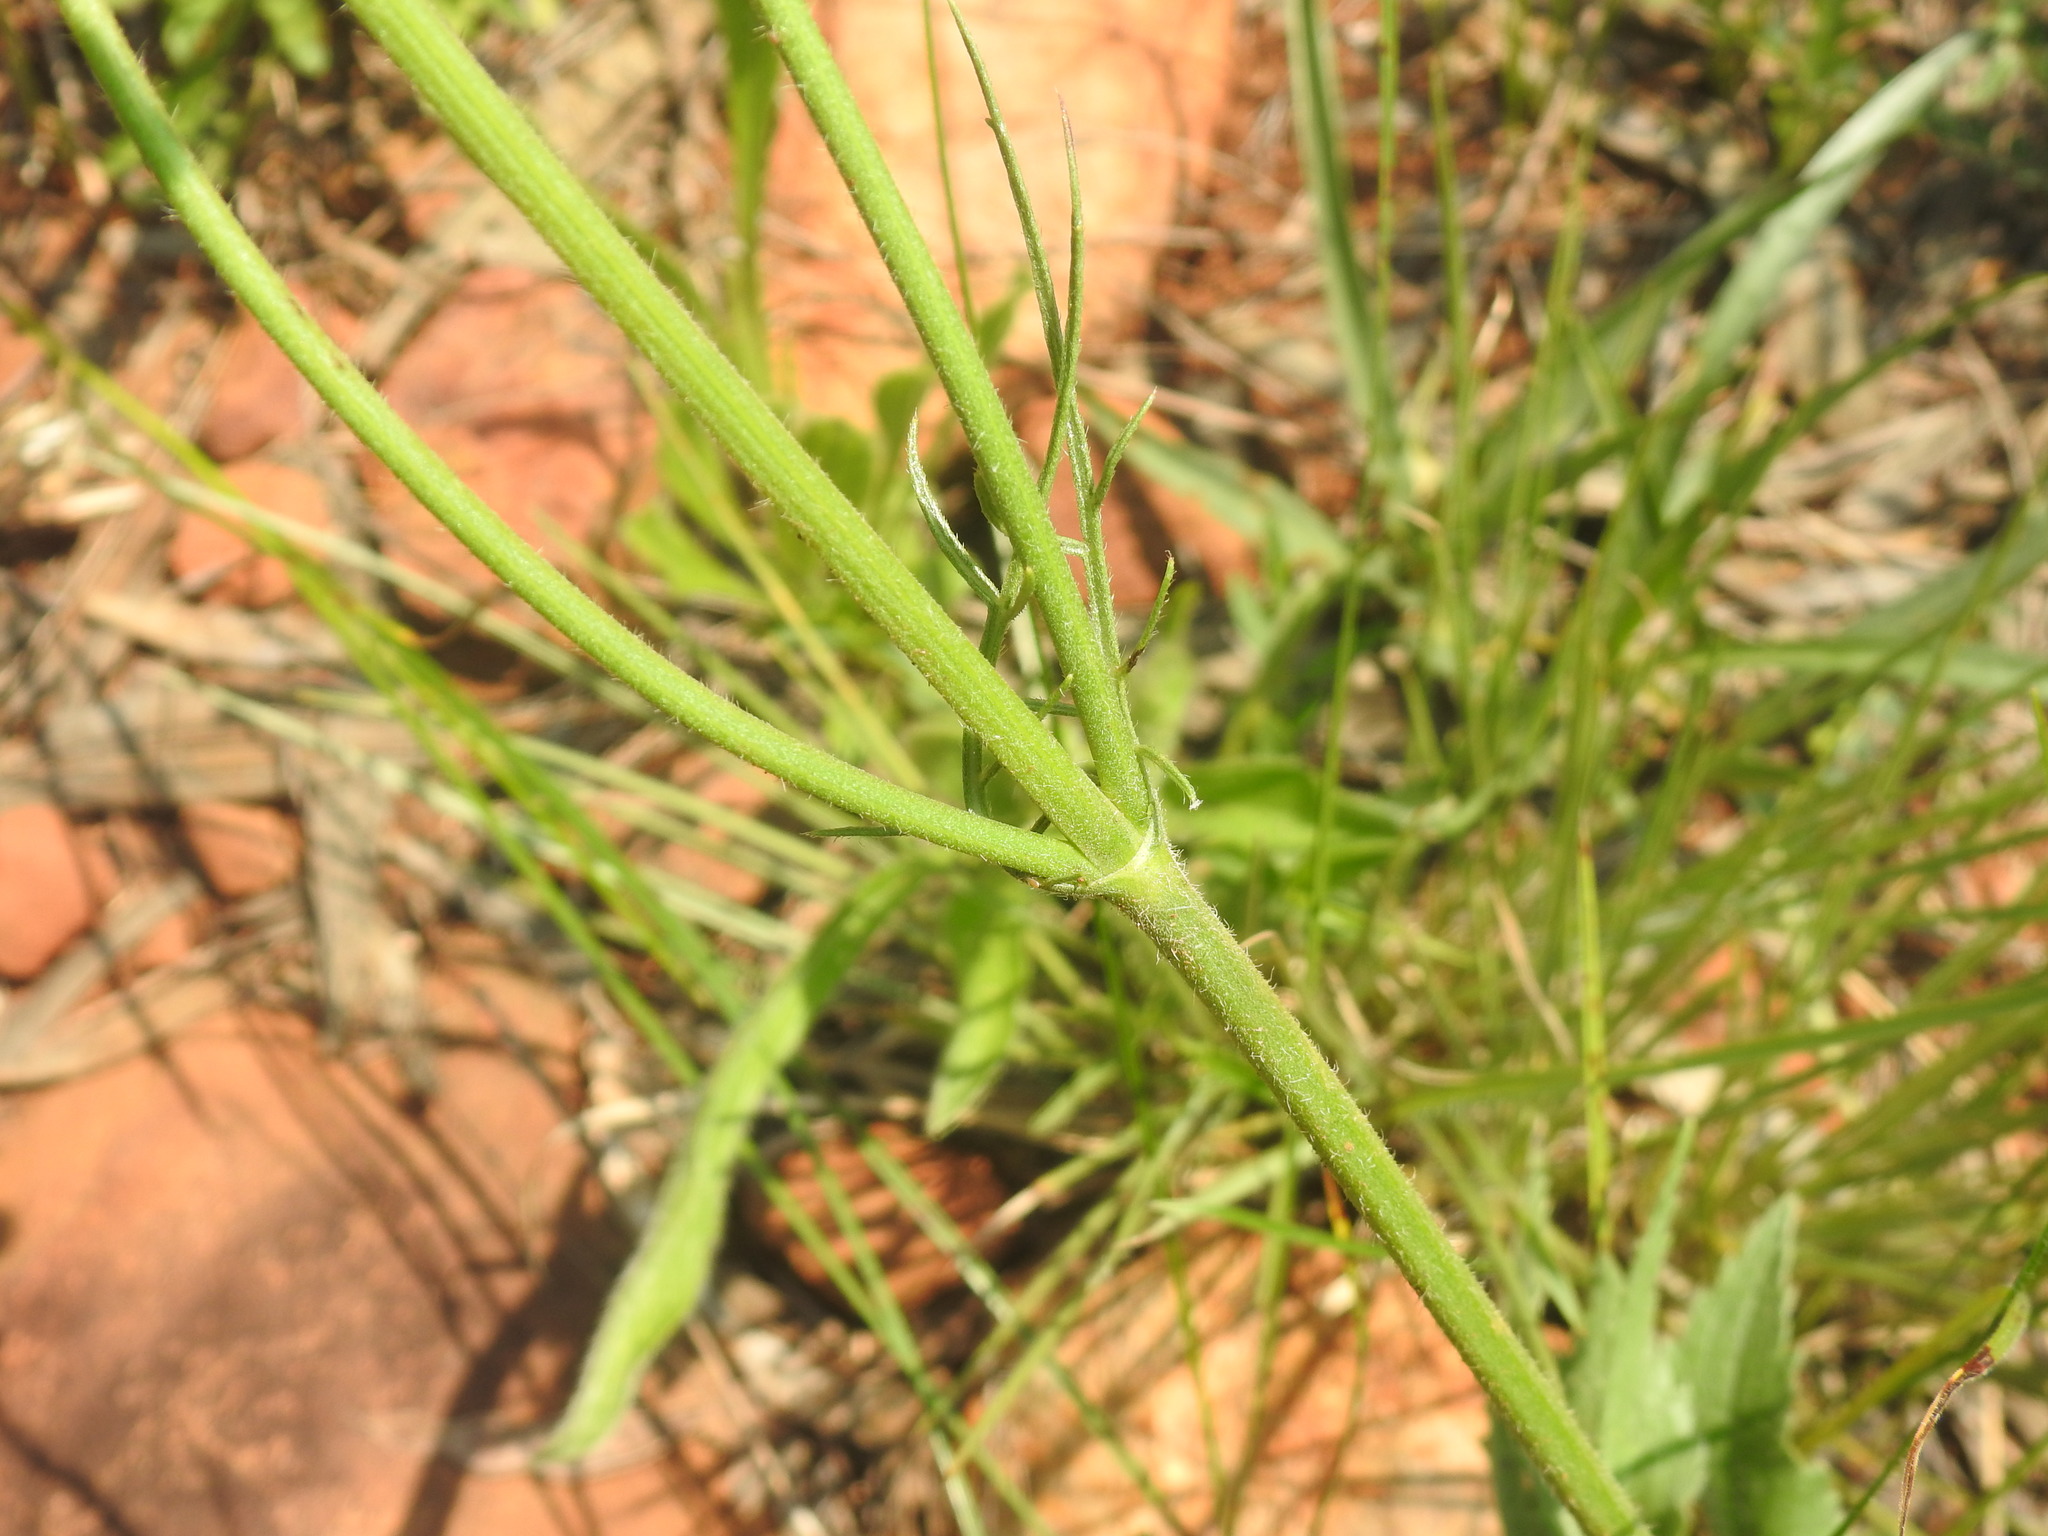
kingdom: Plantae
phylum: Tracheophyta
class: Magnoliopsida
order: Dipsacales
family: Caprifoliaceae
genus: Cephalaria
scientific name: Cephalaria zeyheriana
